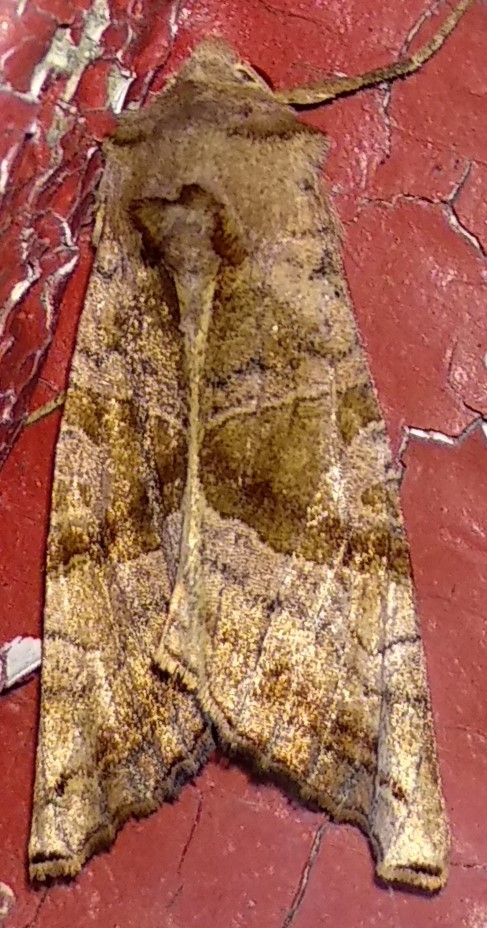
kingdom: Animalia
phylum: Arthropoda
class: Insecta
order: Lepidoptera
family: Noctuidae
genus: Phlogophora
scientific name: Phlogophora periculosa
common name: Brown angle shades
